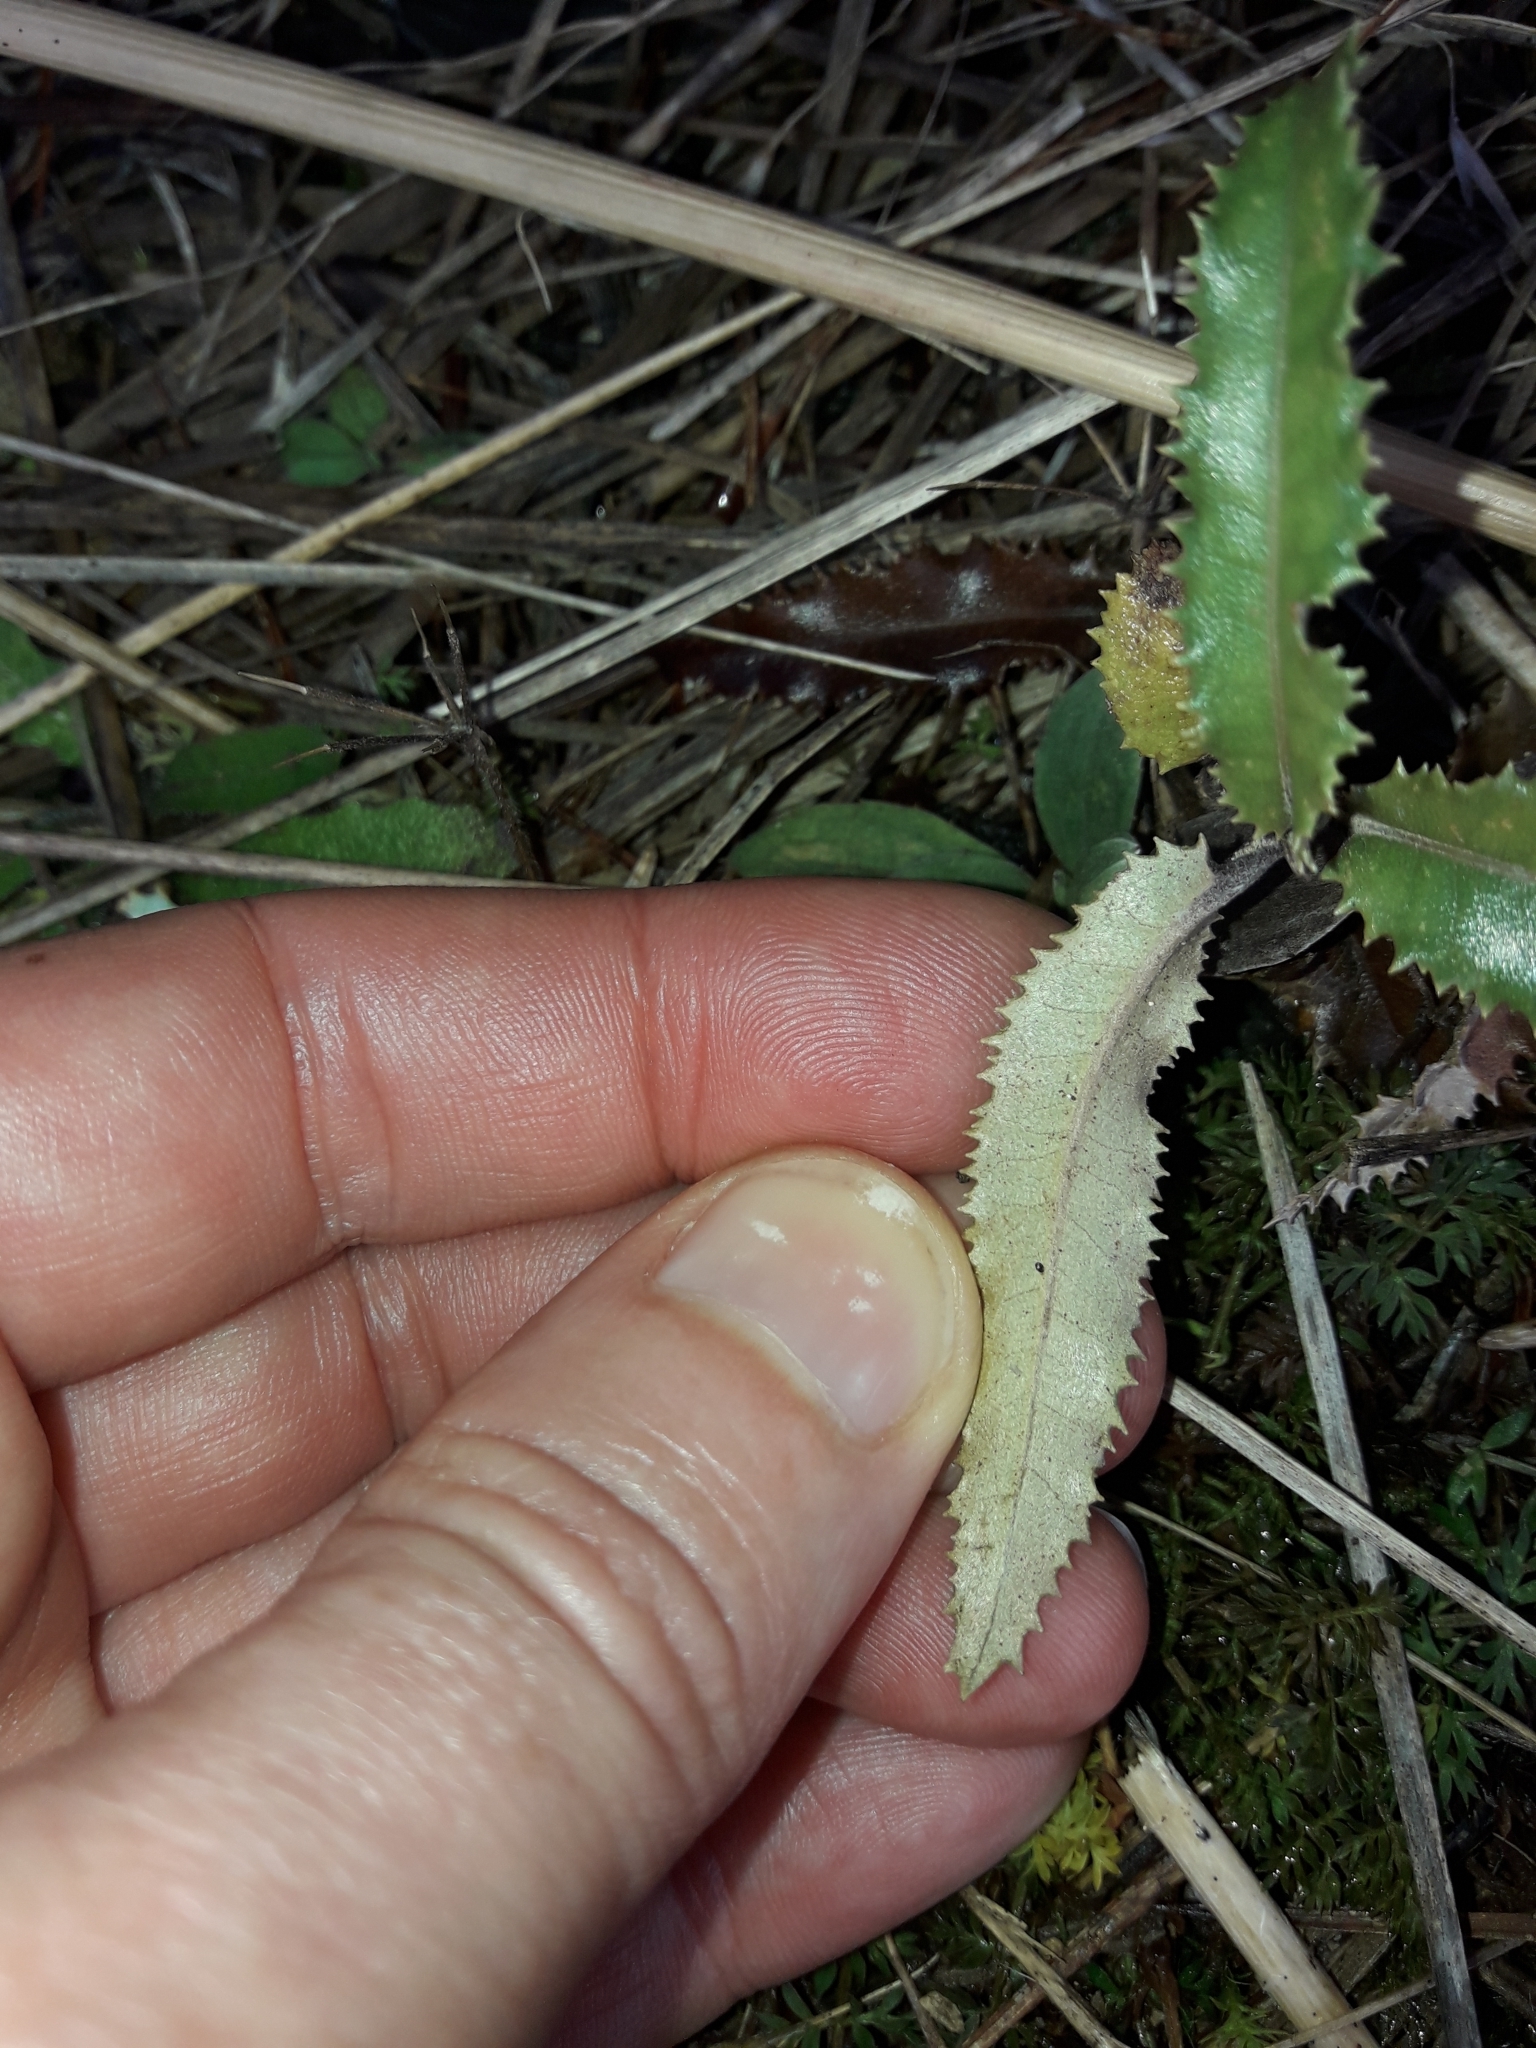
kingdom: Plantae
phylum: Tracheophyta
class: Magnoliopsida
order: Asterales
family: Asteraceae
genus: Olearia
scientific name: Olearia ilicifolia
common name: Maori-holly
